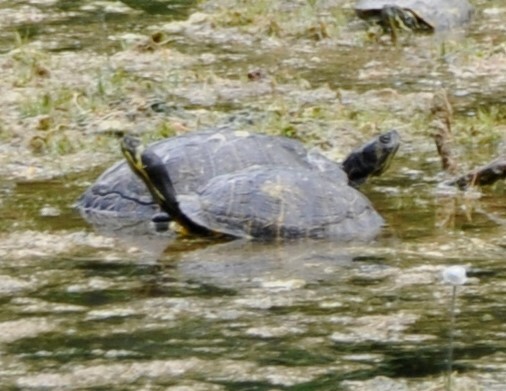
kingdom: Animalia
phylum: Chordata
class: Testudines
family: Emydidae
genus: Trachemys
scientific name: Trachemys scripta
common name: Slider
